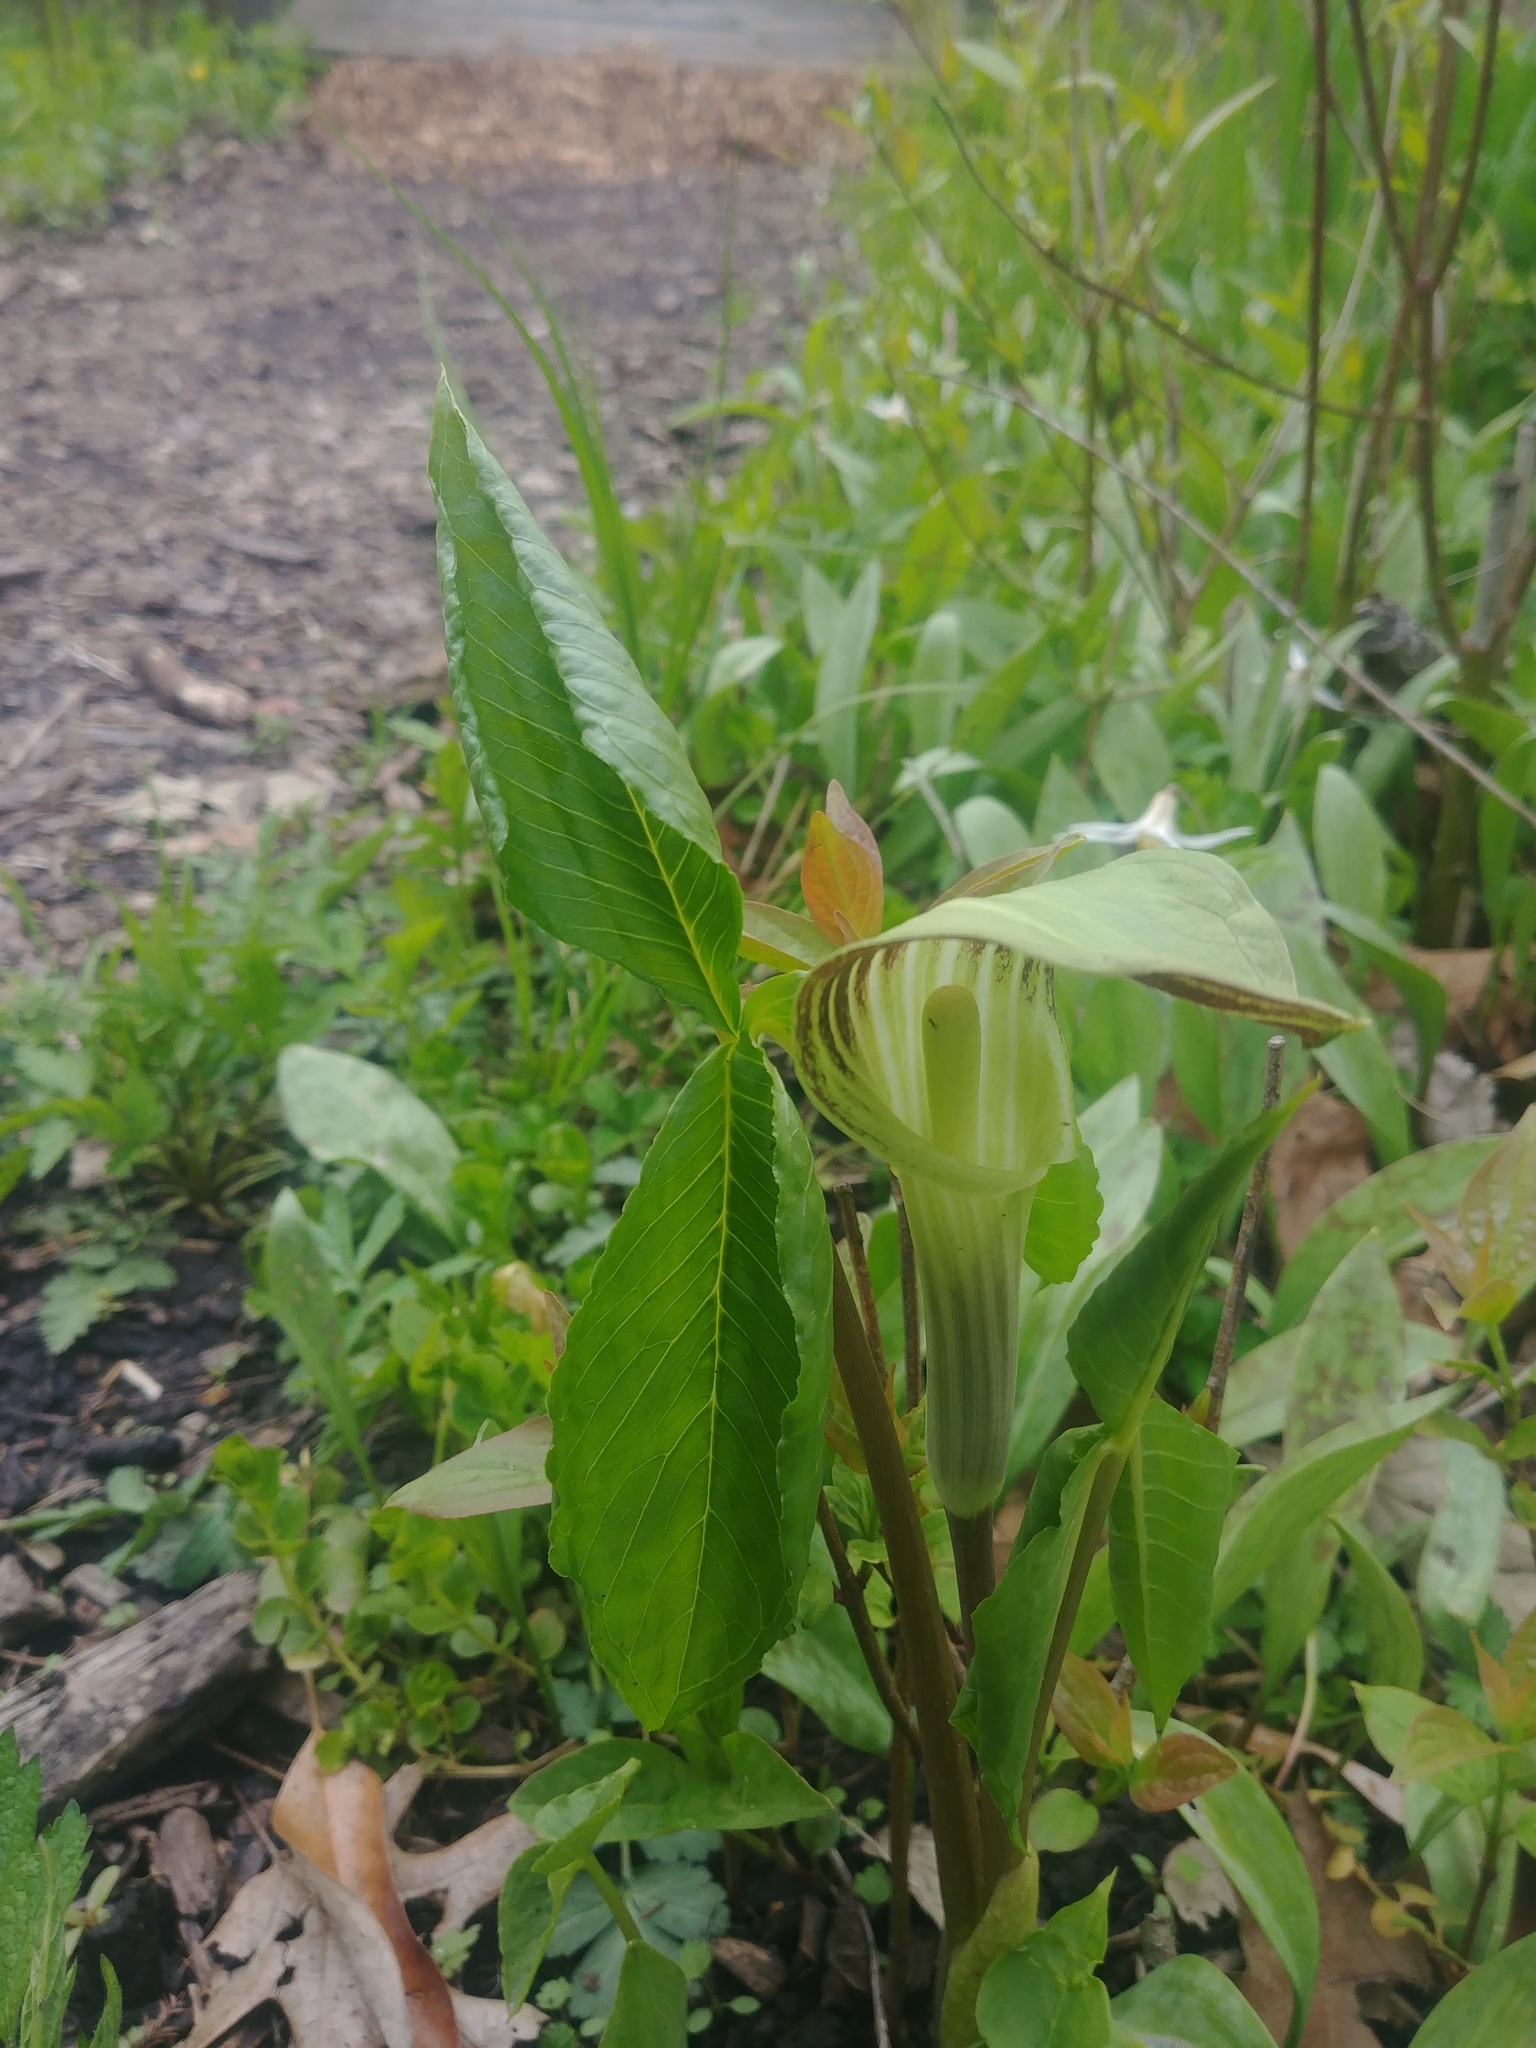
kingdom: Plantae
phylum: Tracheophyta
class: Liliopsida
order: Alismatales
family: Araceae
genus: Arisaema
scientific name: Arisaema triphyllum
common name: Jack-in-the-pulpit
